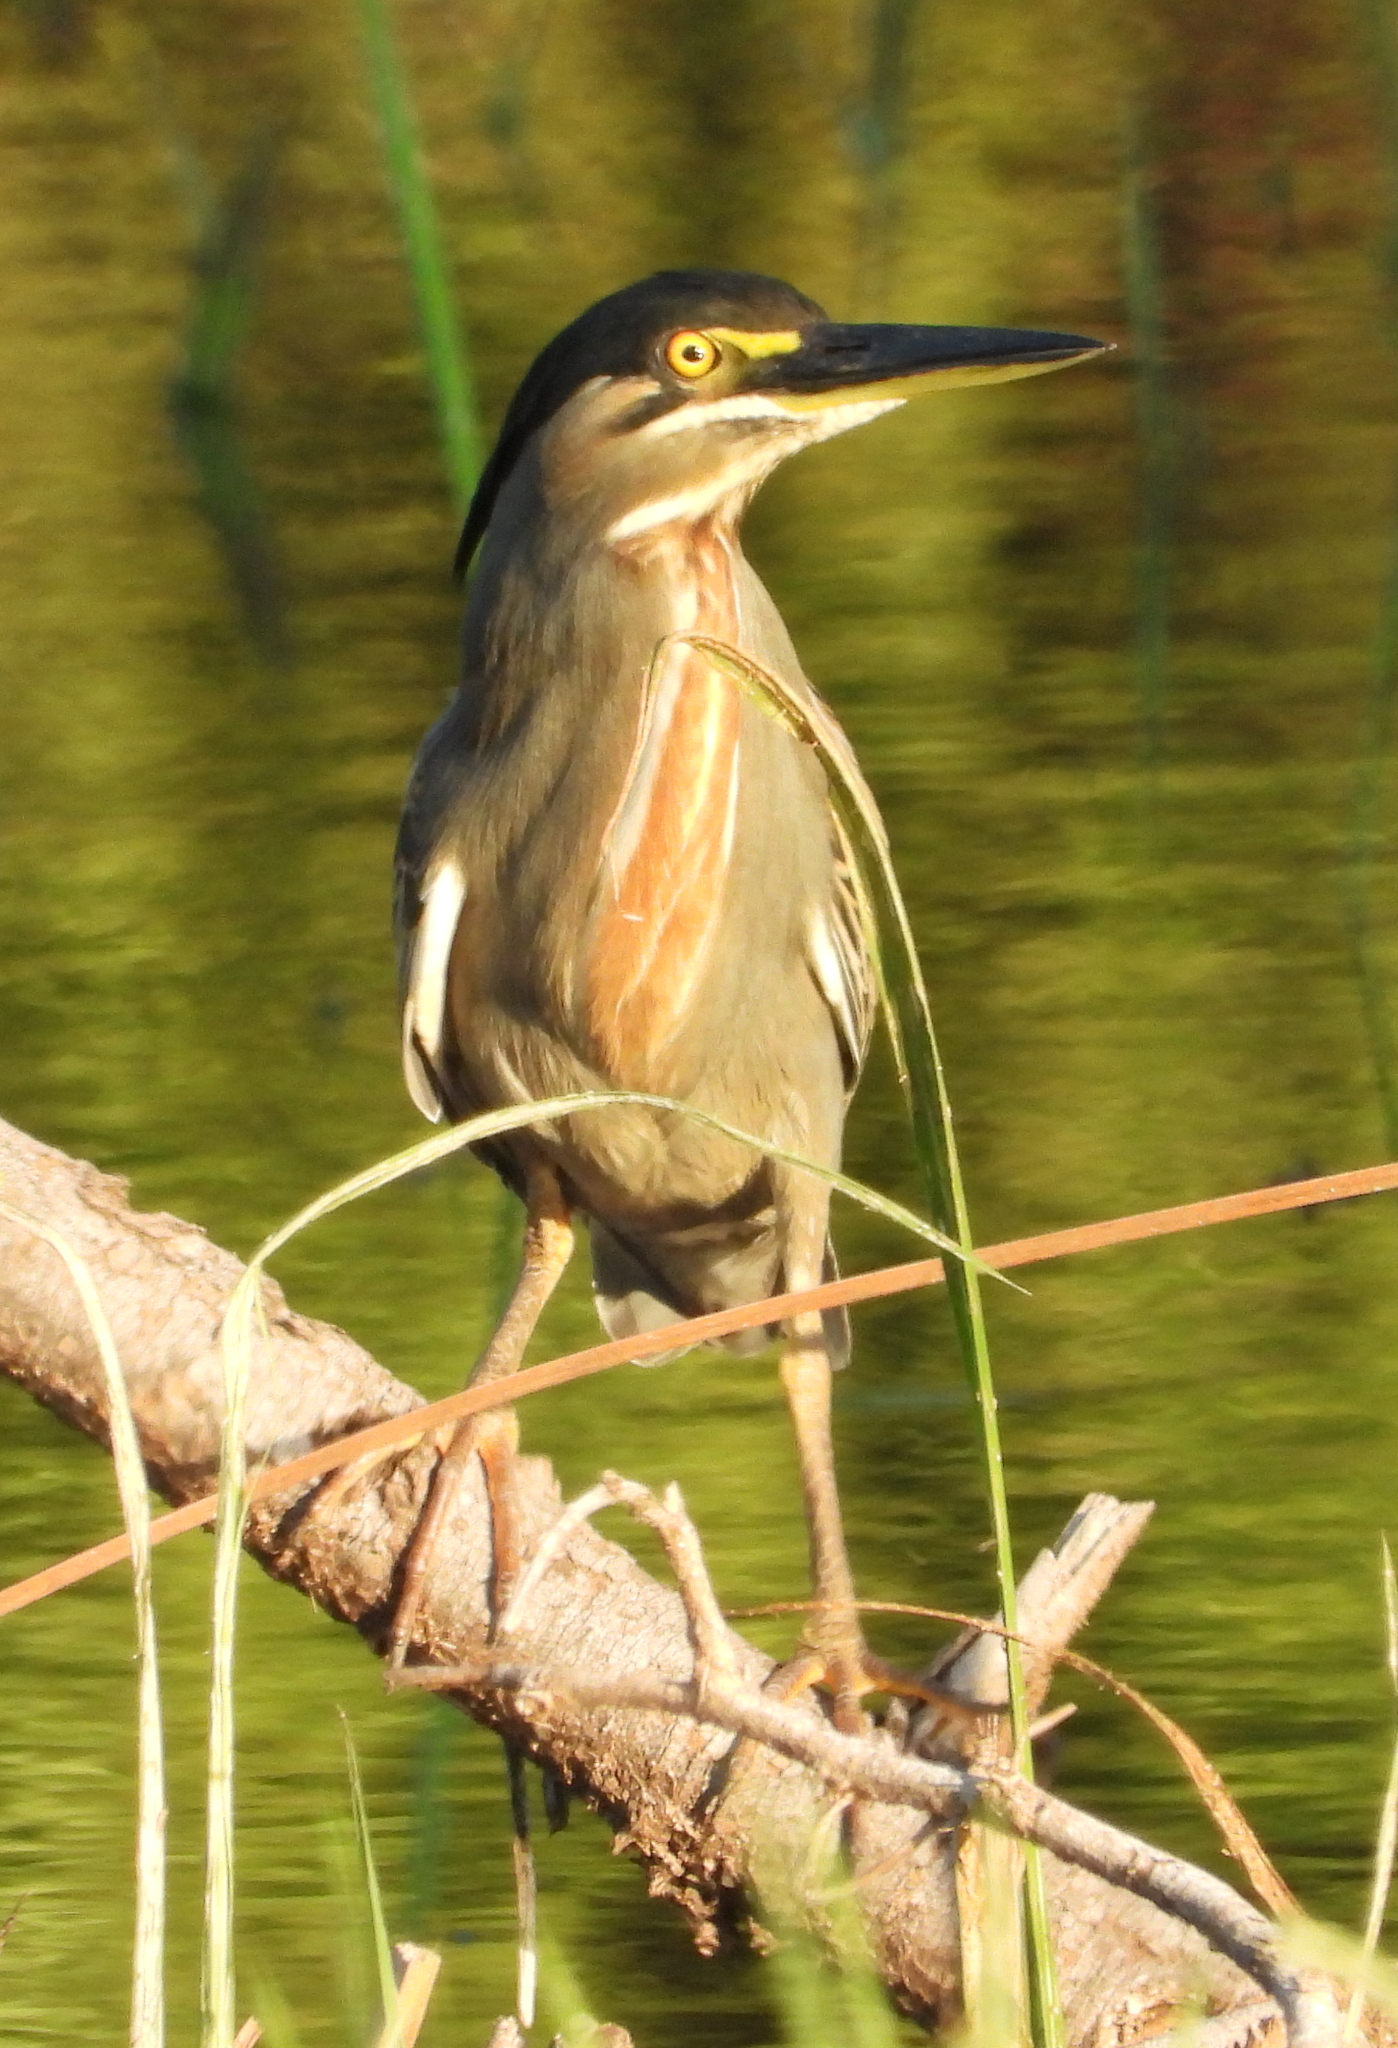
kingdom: Animalia
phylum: Chordata
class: Aves
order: Pelecaniformes
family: Ardeidae
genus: Butorides
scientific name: Butorides striata
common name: Striated heron
